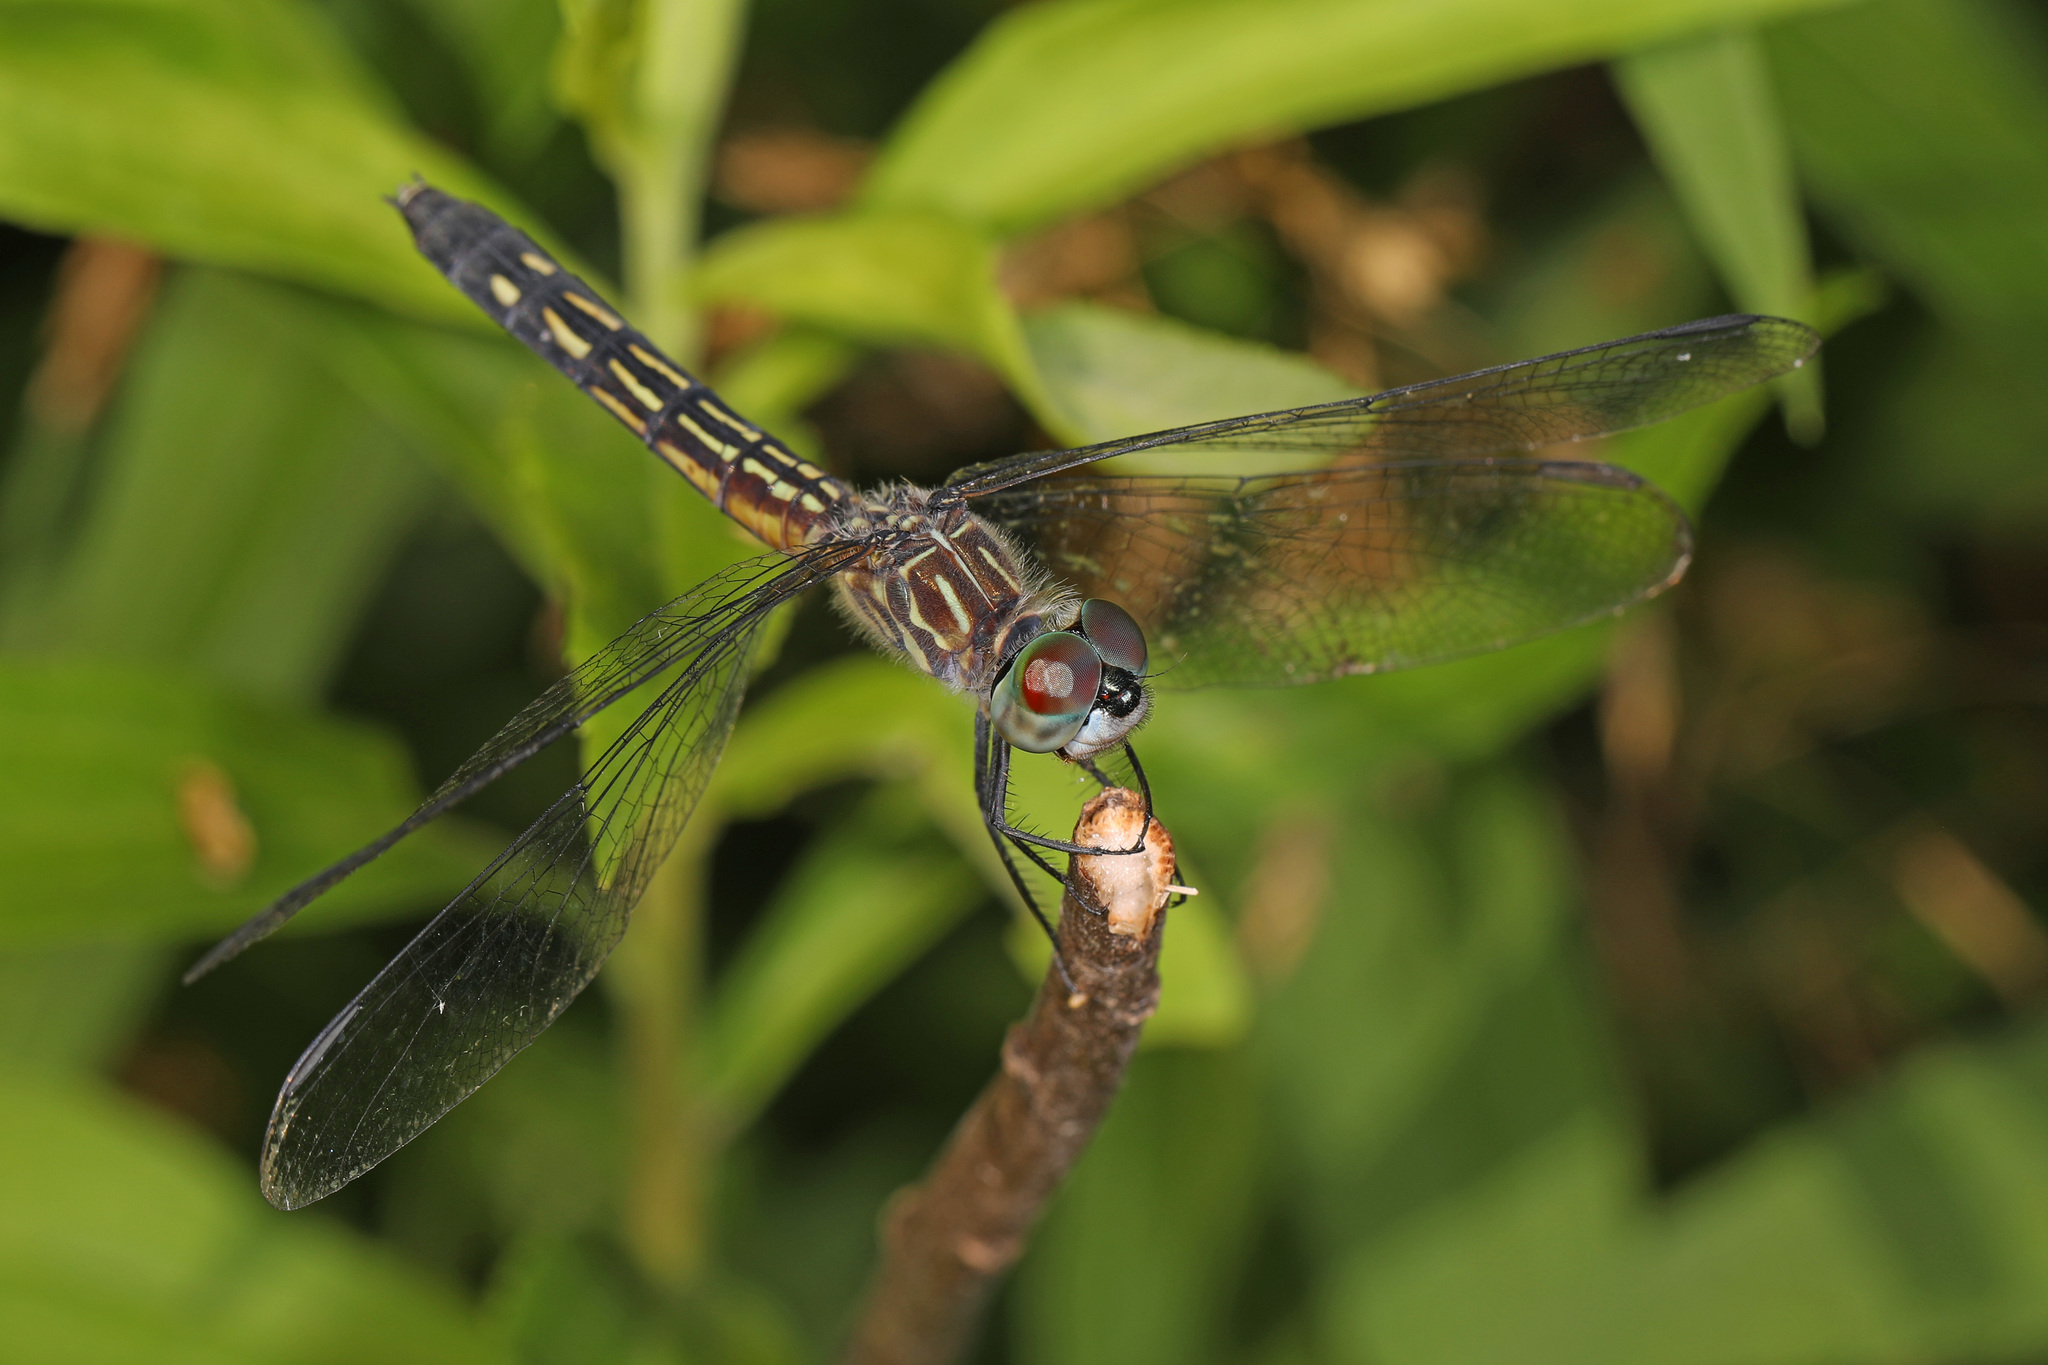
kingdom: Animalia
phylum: Arthropoda
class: Insecta
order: Odonata
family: Libellulidae
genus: Pachydiplax
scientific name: Pachydiplax longipennis
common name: Blue dasher
